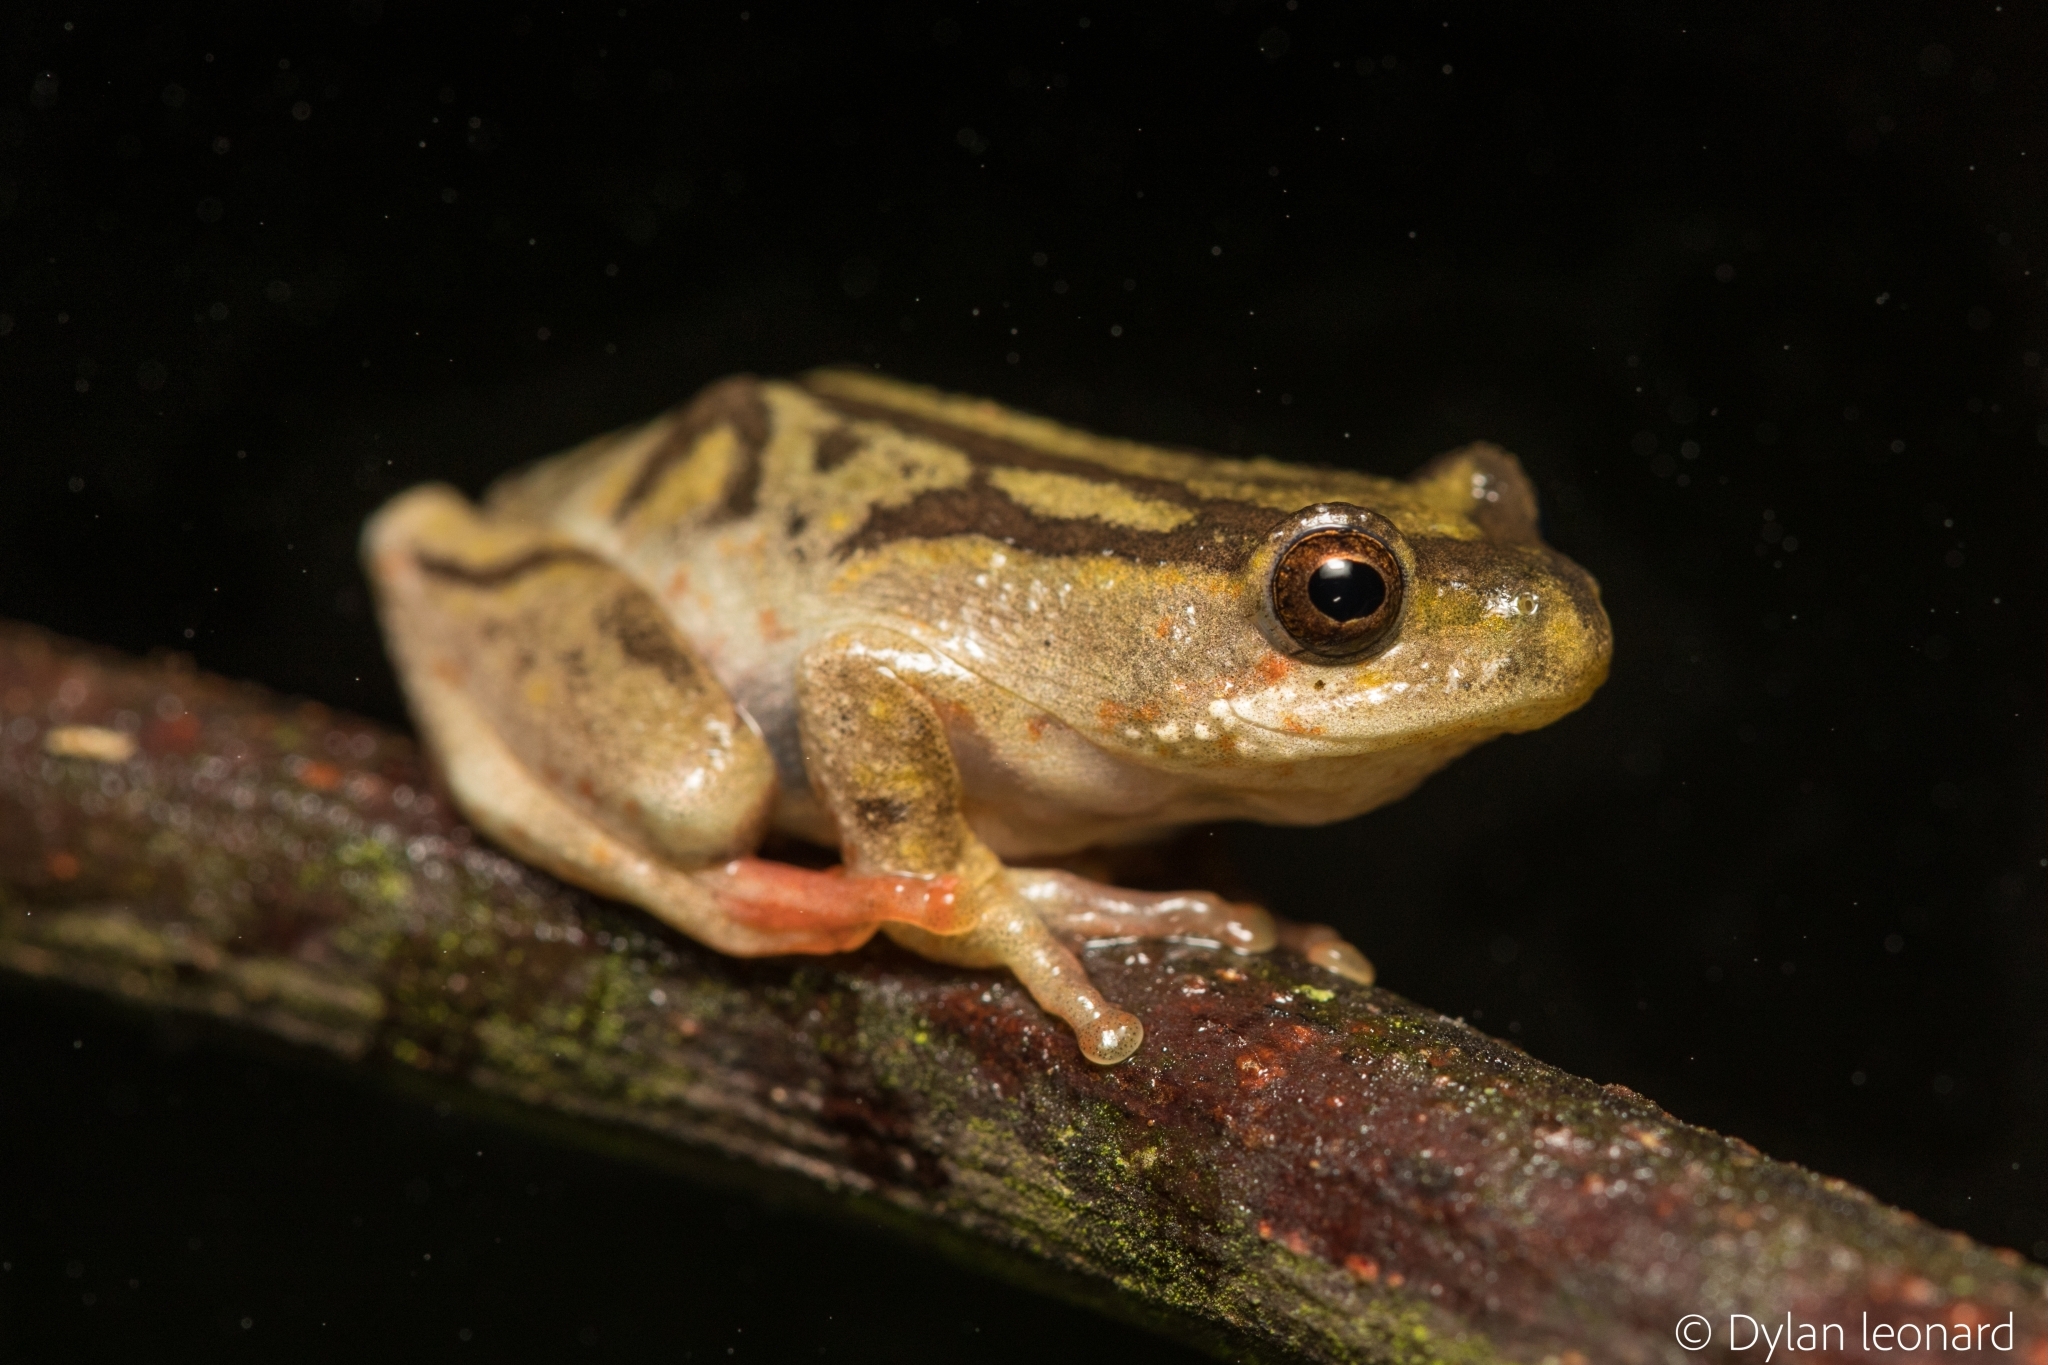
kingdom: Animalia
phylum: Chordata
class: Amphibia
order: Anura
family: Hyperoliidae
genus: Hyperolius
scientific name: Hyperolius marmoratus
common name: Painted reed frog
